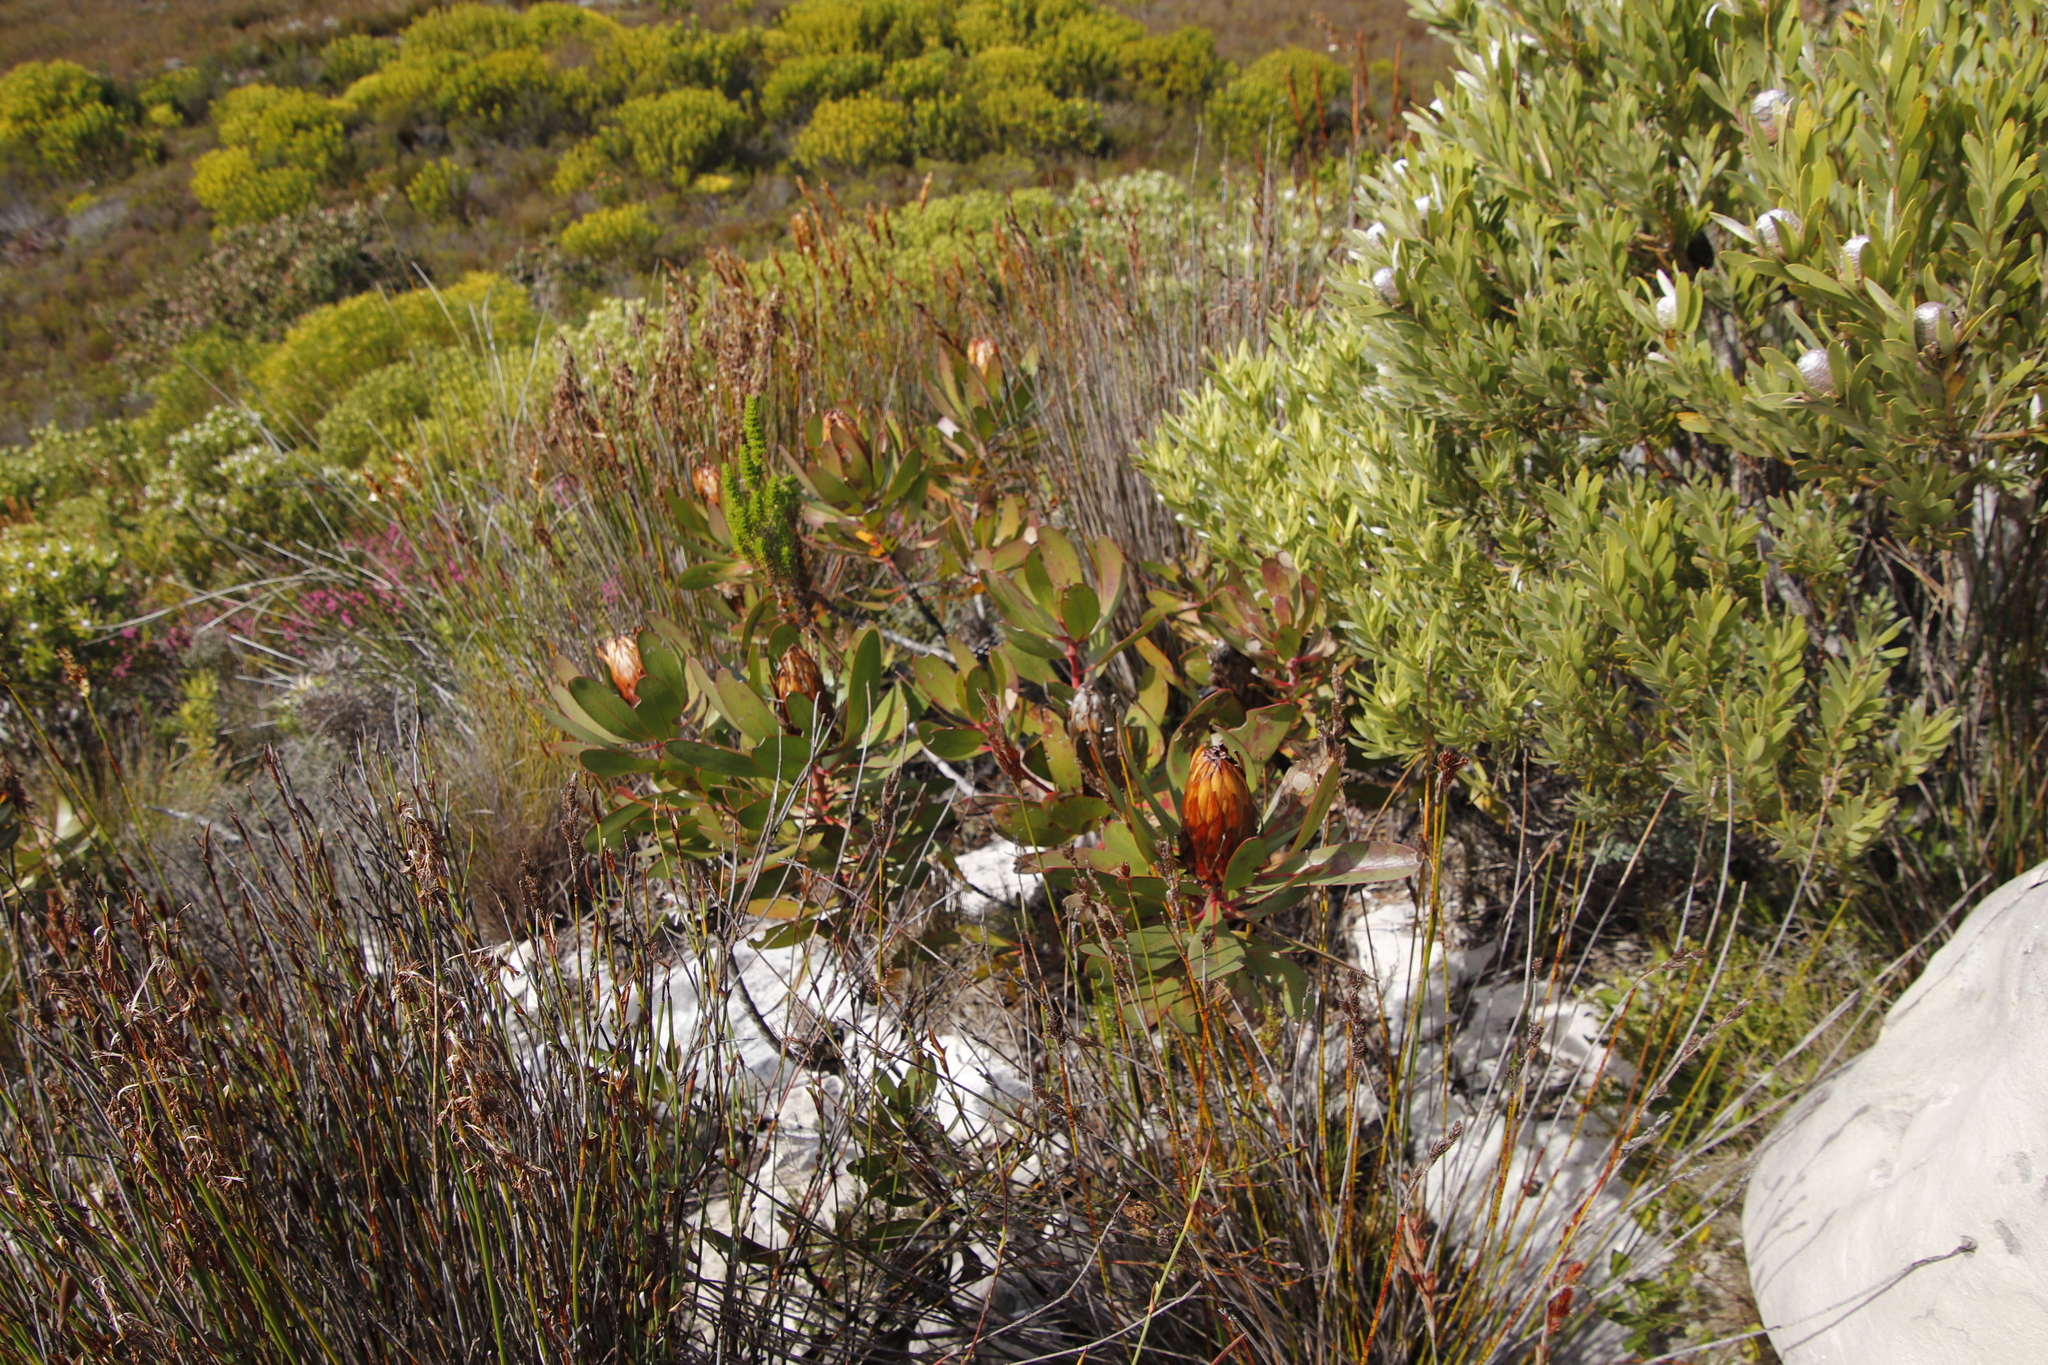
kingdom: Plantae
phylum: Tracheophyta
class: Magnoliopsida
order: Proteales
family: Proteaceae
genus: Protea
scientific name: Protea obtusifolia
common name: Bredasdorp sugarbush
